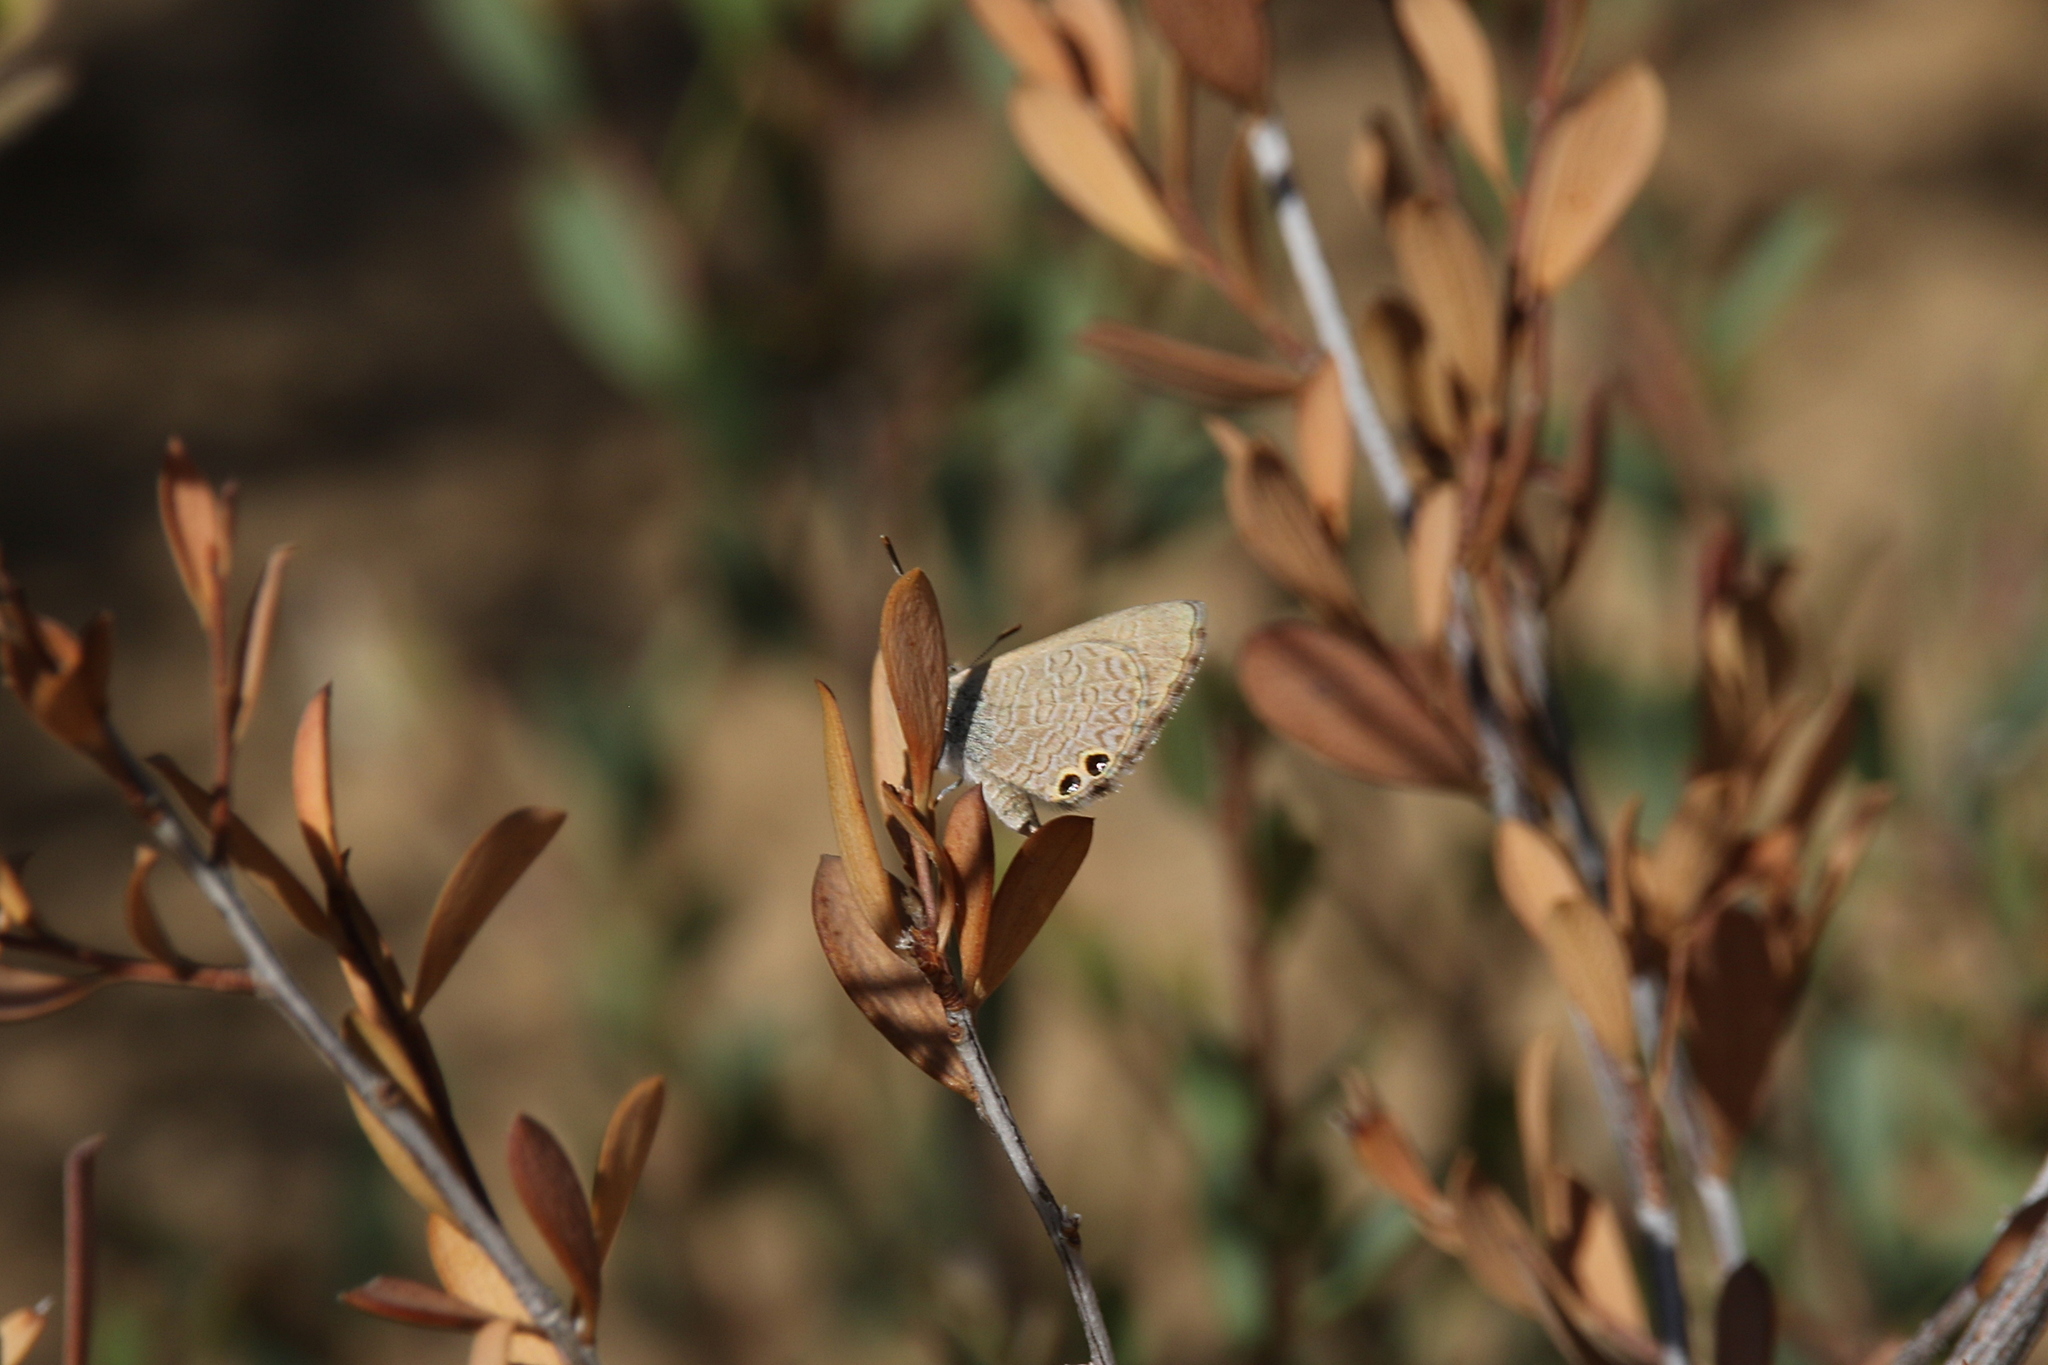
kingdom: Animalia
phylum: Arthropoda
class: Insecta
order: Lepidoptera
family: Lycaenidae
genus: Nacaduba
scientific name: Nacaduba biocellata
